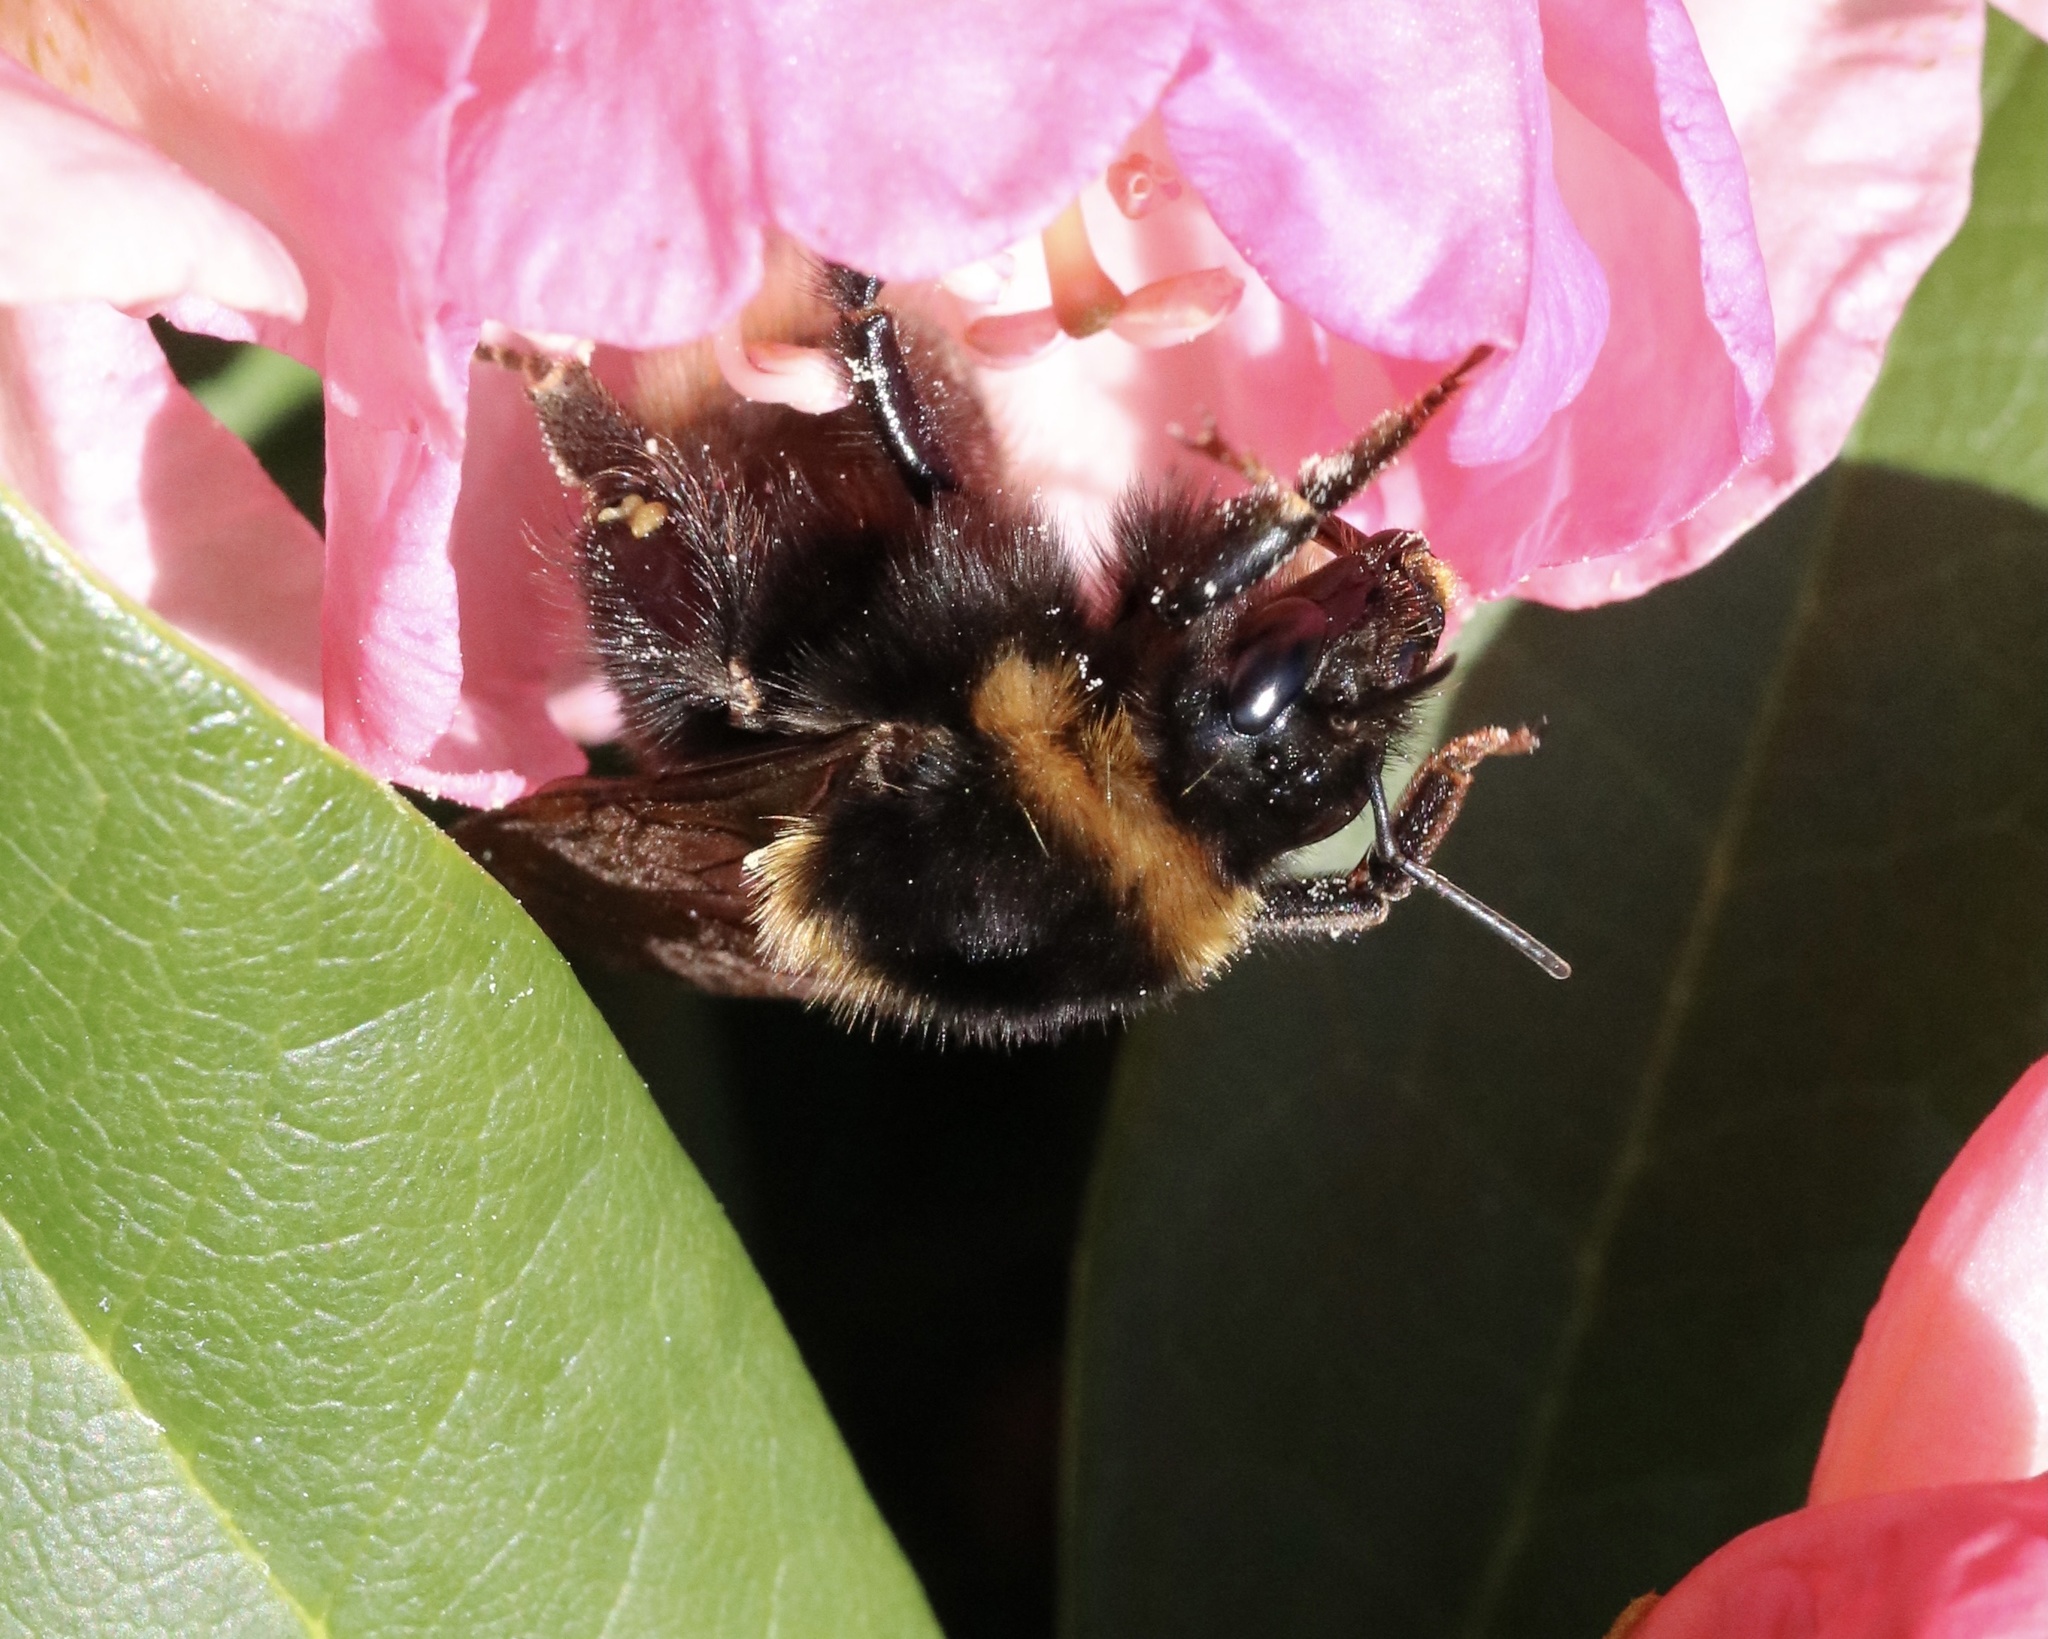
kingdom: Animalia
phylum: Arthropoda
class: Insecta
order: Hymenoptera
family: Apidae
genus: Bombus
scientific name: Bombus ruderatus
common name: Large garden bumblebee
